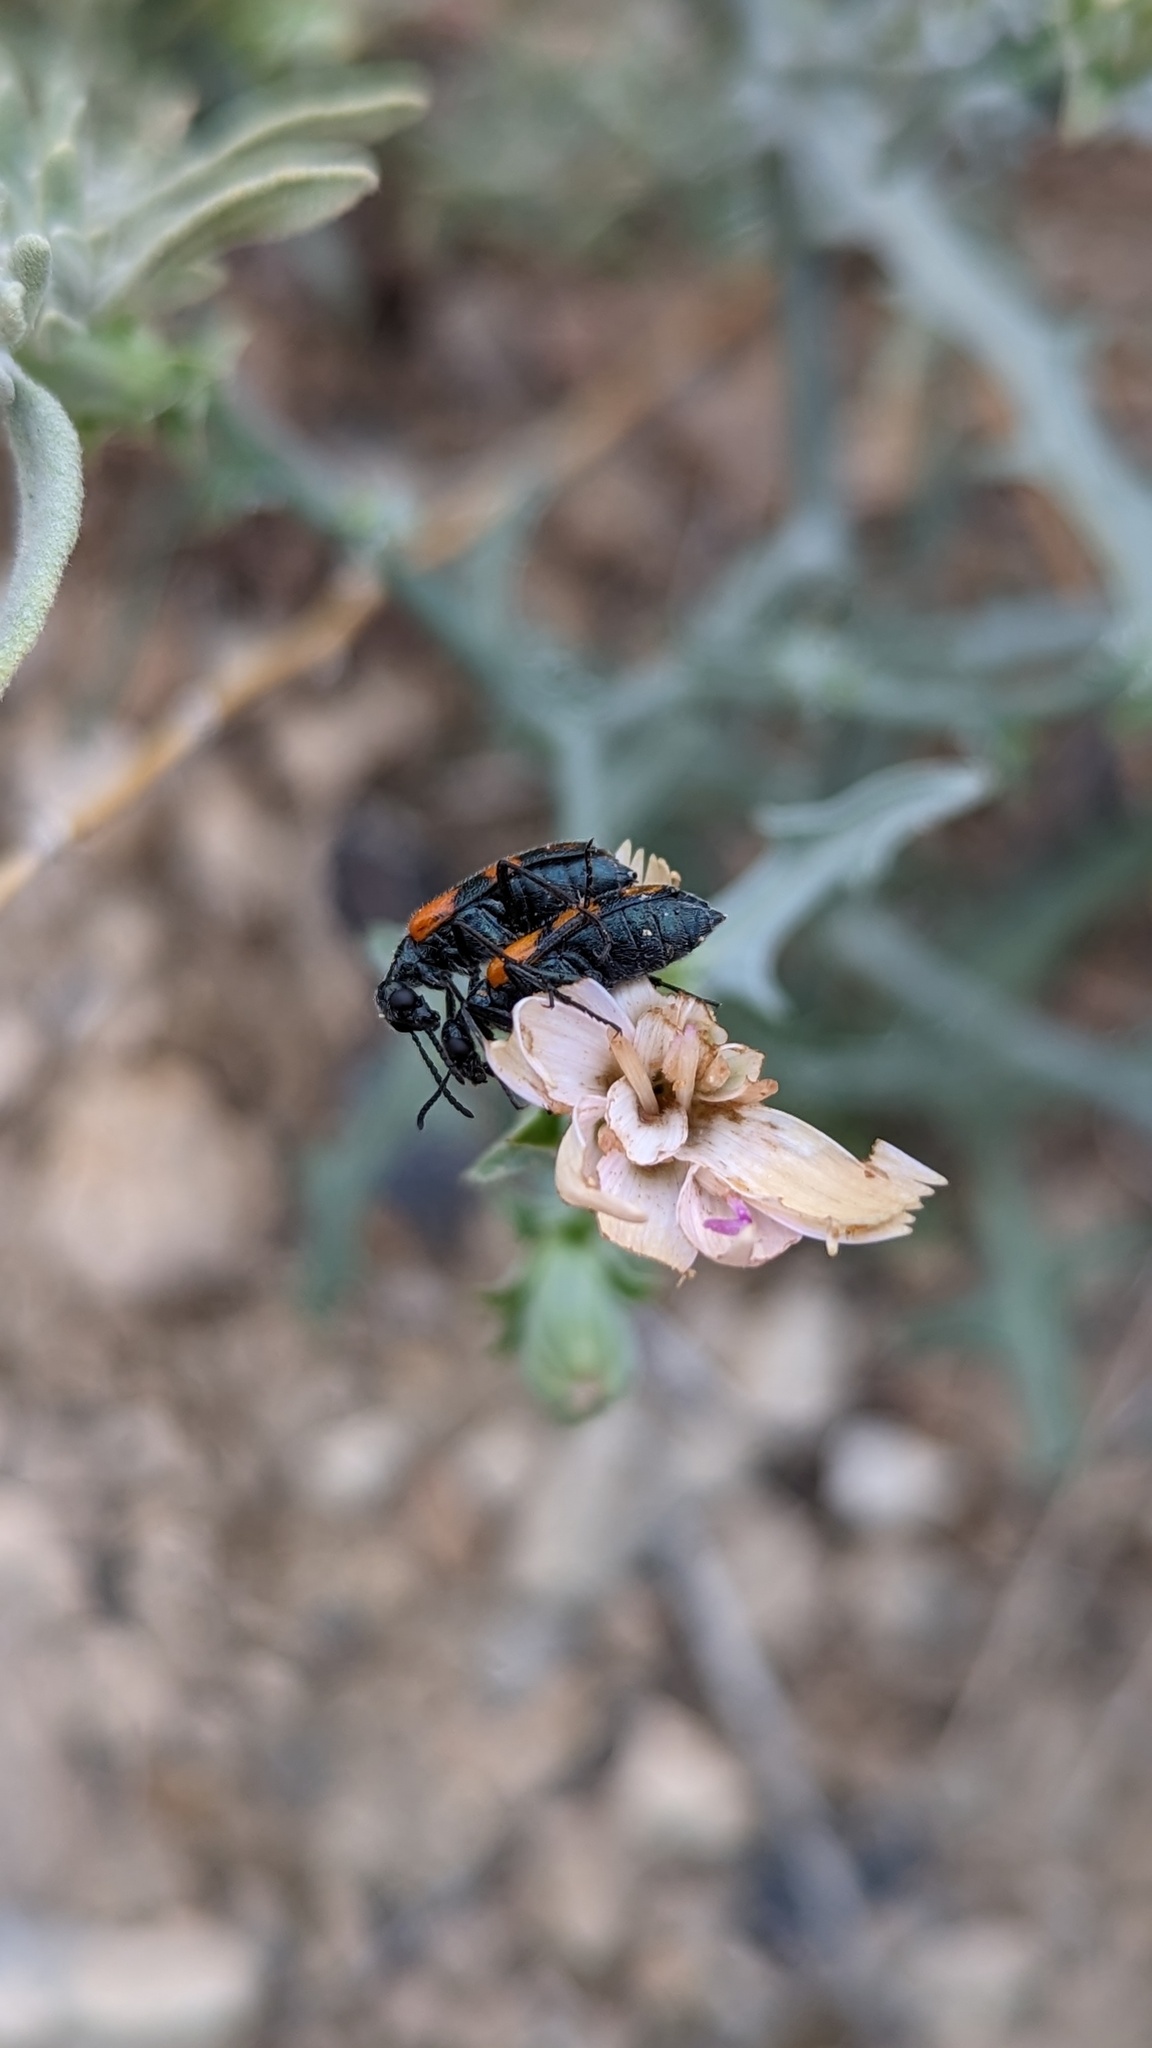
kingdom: Animalia
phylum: Arthropoda
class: Insecta
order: Coleoptera
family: Meloidae
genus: Eupompha
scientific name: Eupompha elegans
